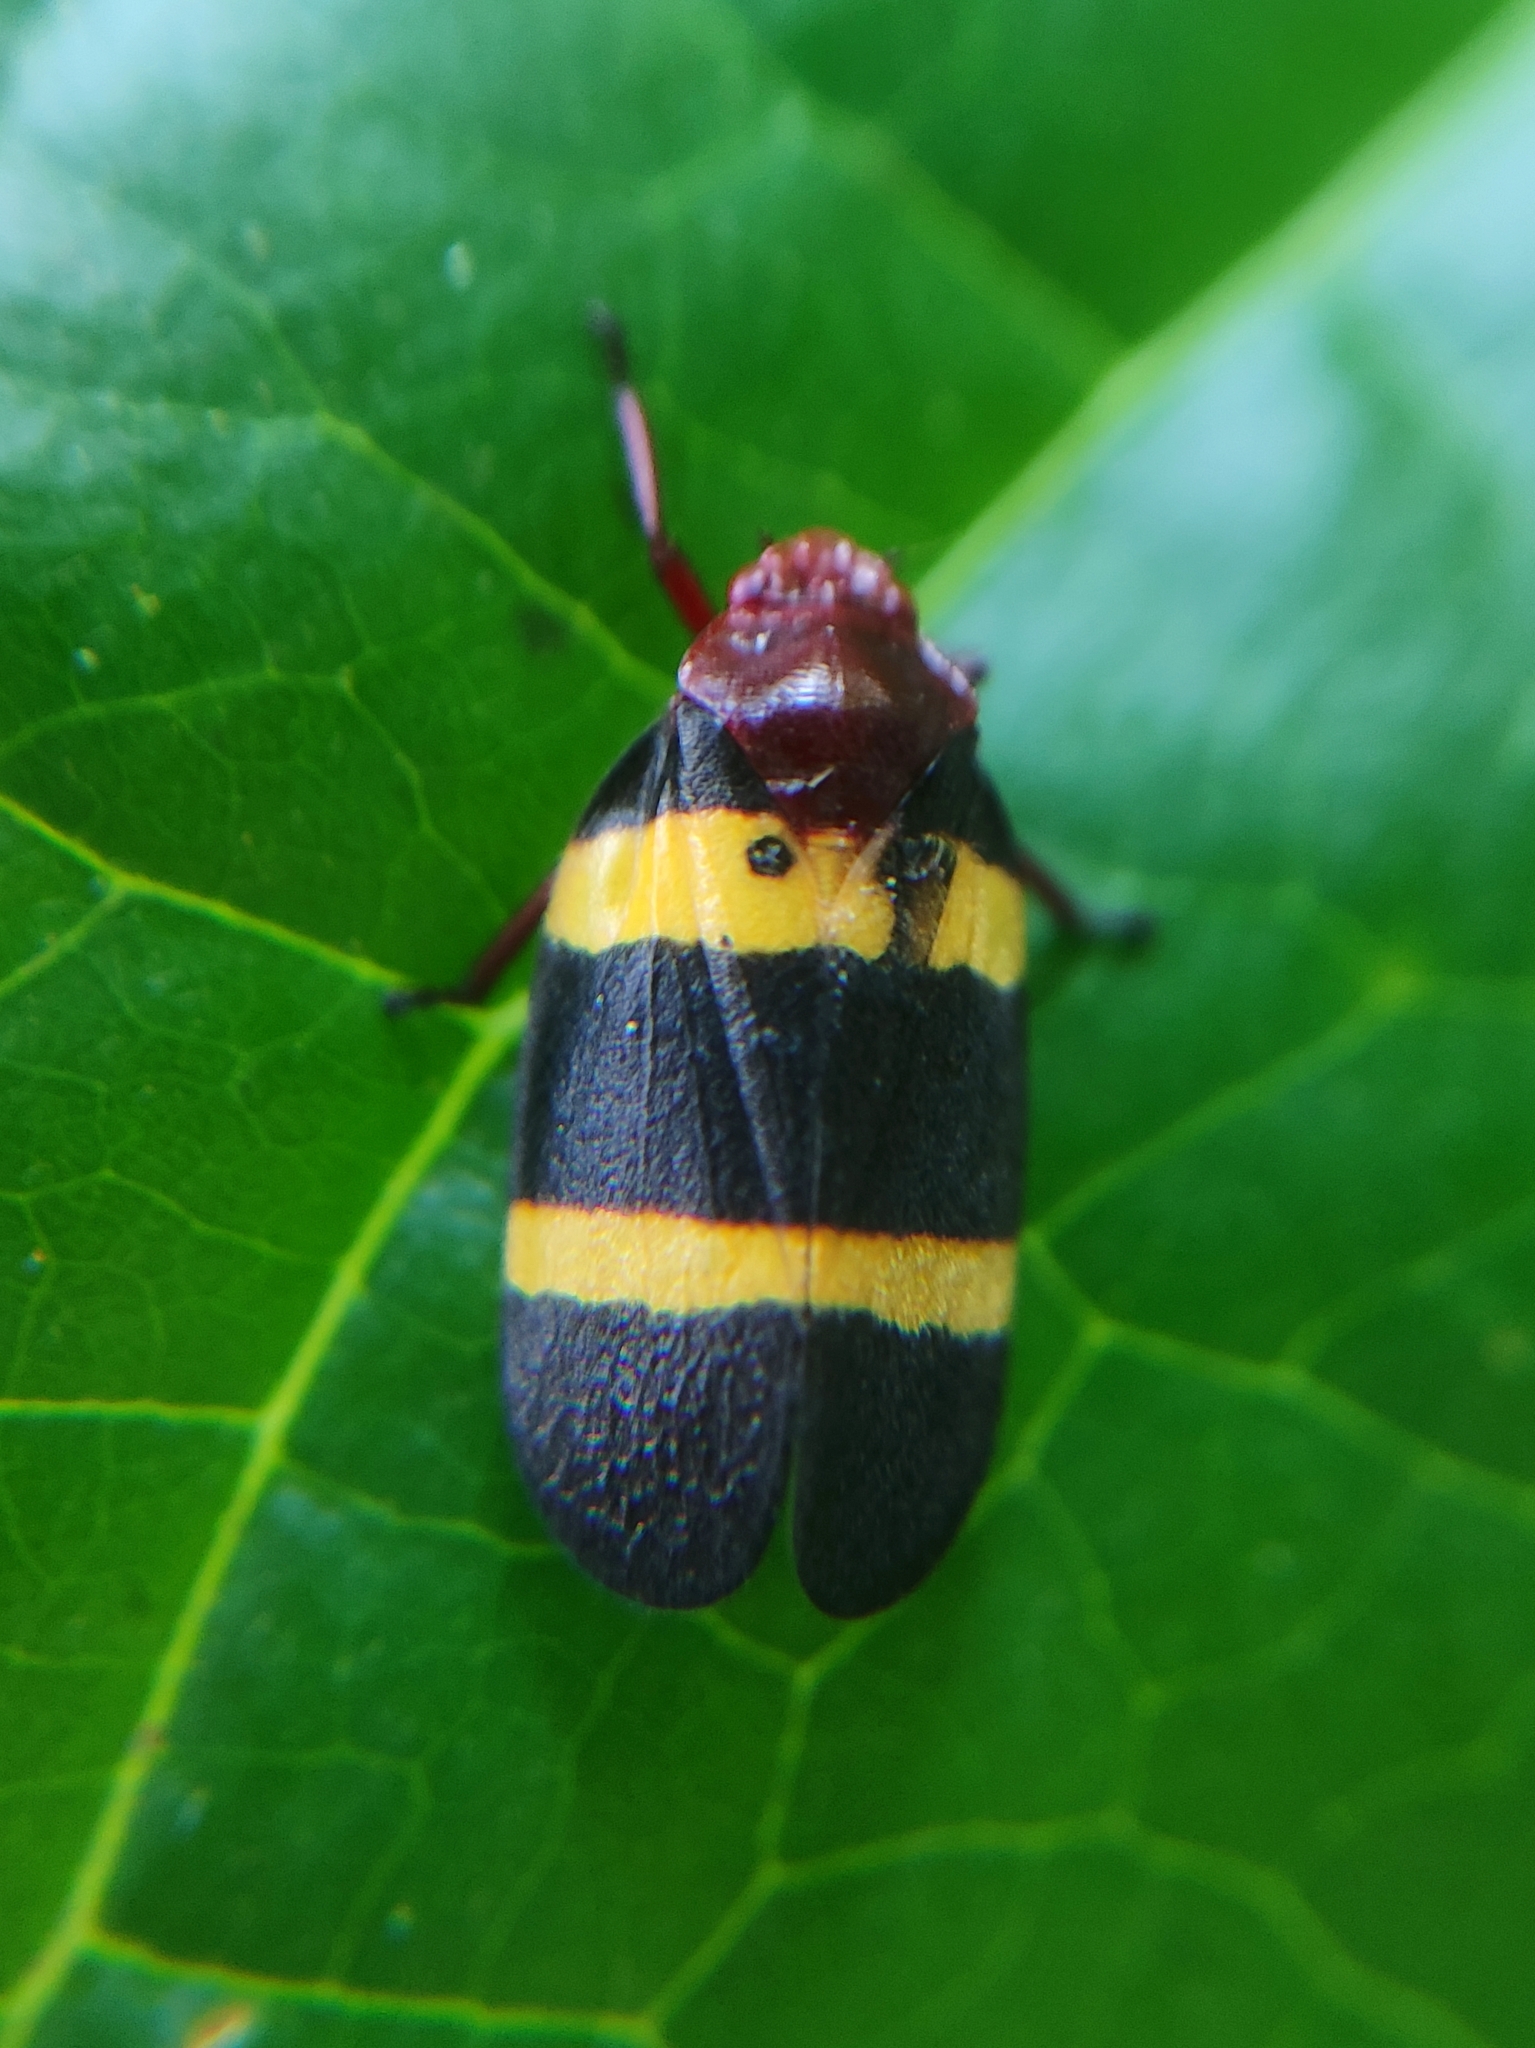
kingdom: Animalia
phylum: Arthropoda
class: Insecta
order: Hemiptera
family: Cercopidae
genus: Sphenorhina
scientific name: Sphenorhina rubra
